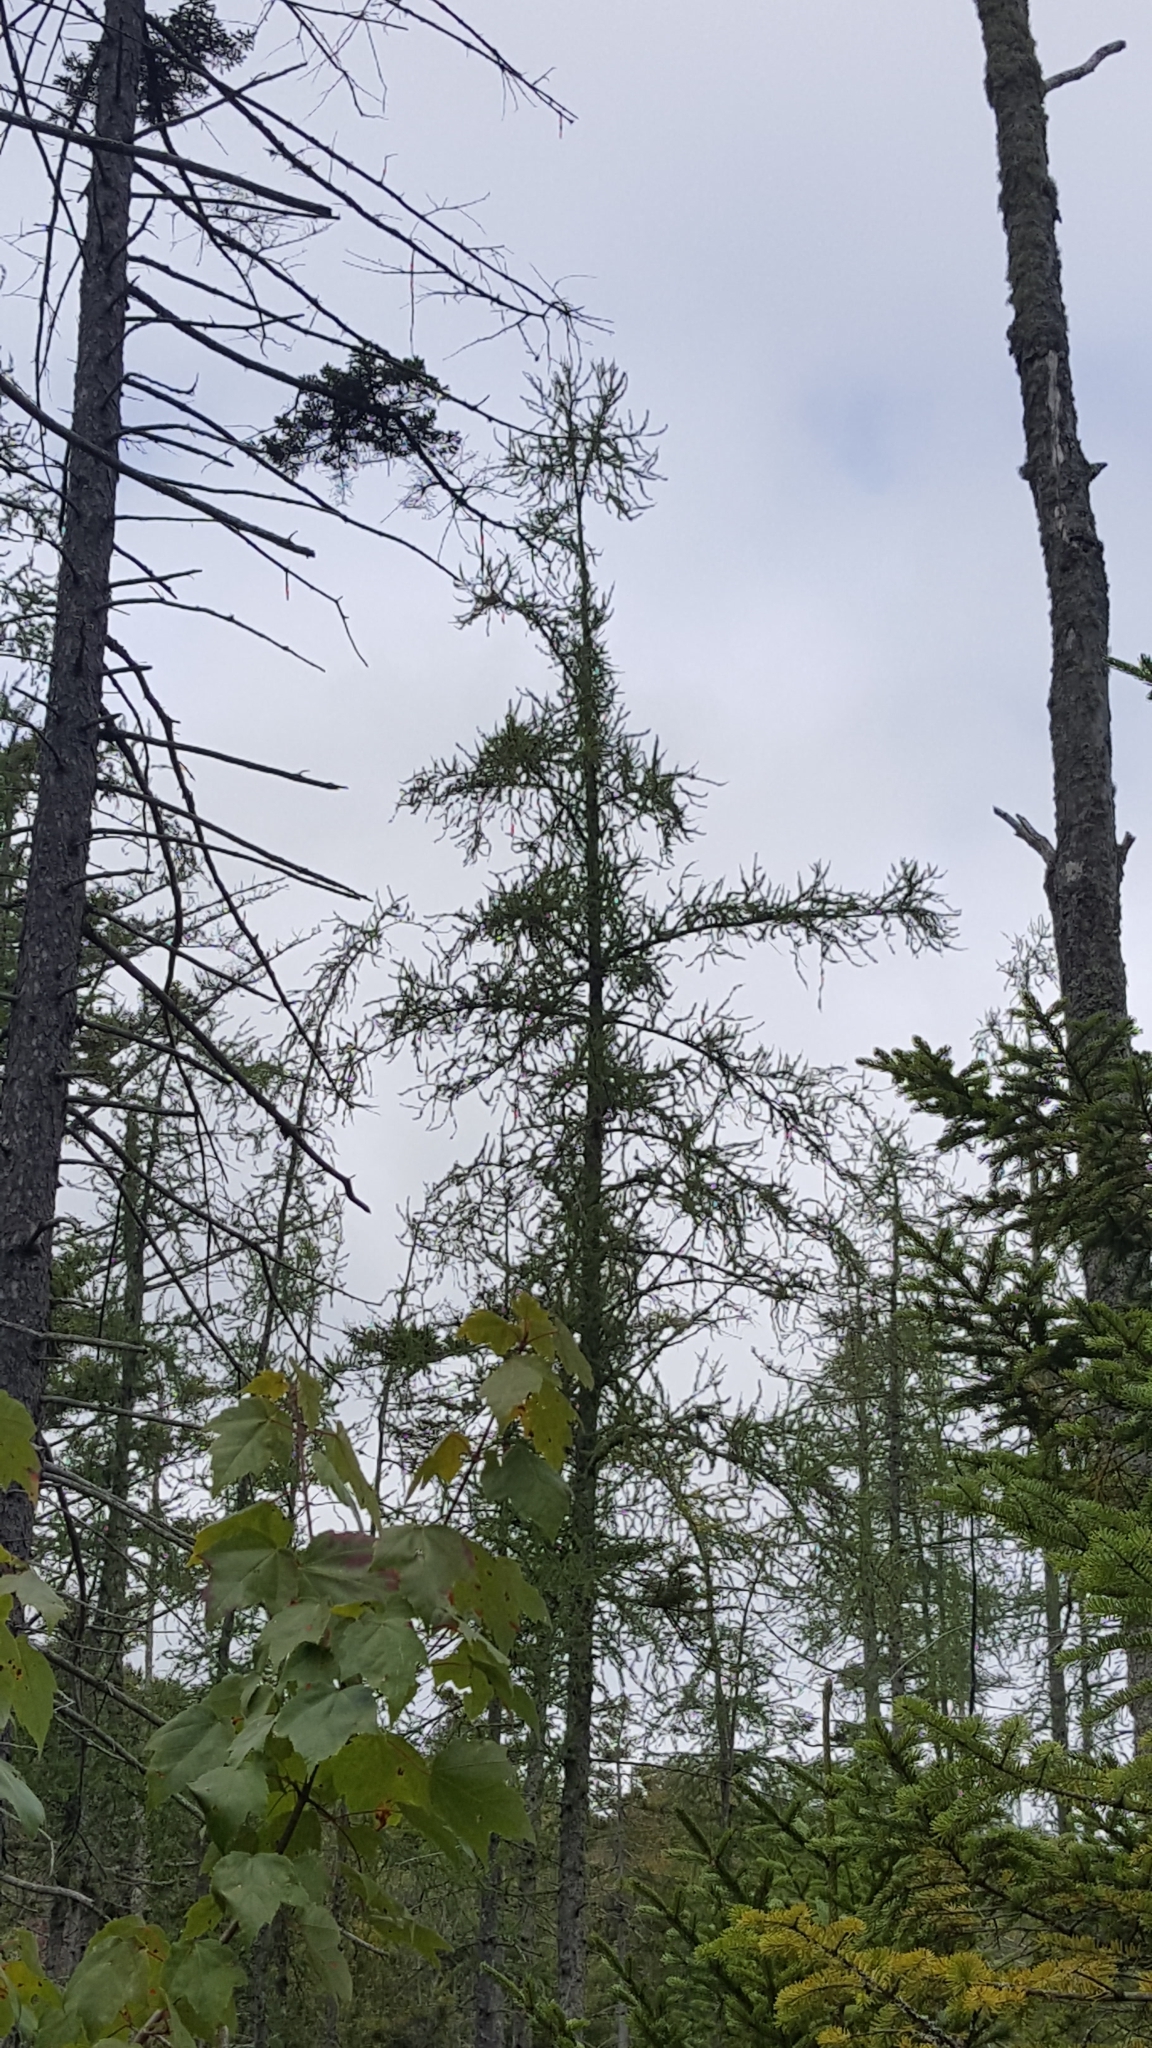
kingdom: Plantae
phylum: Tracheophyta
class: Pinopsida
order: Pinales
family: Pinaceae
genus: Larix
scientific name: Larix laricina
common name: American larch
